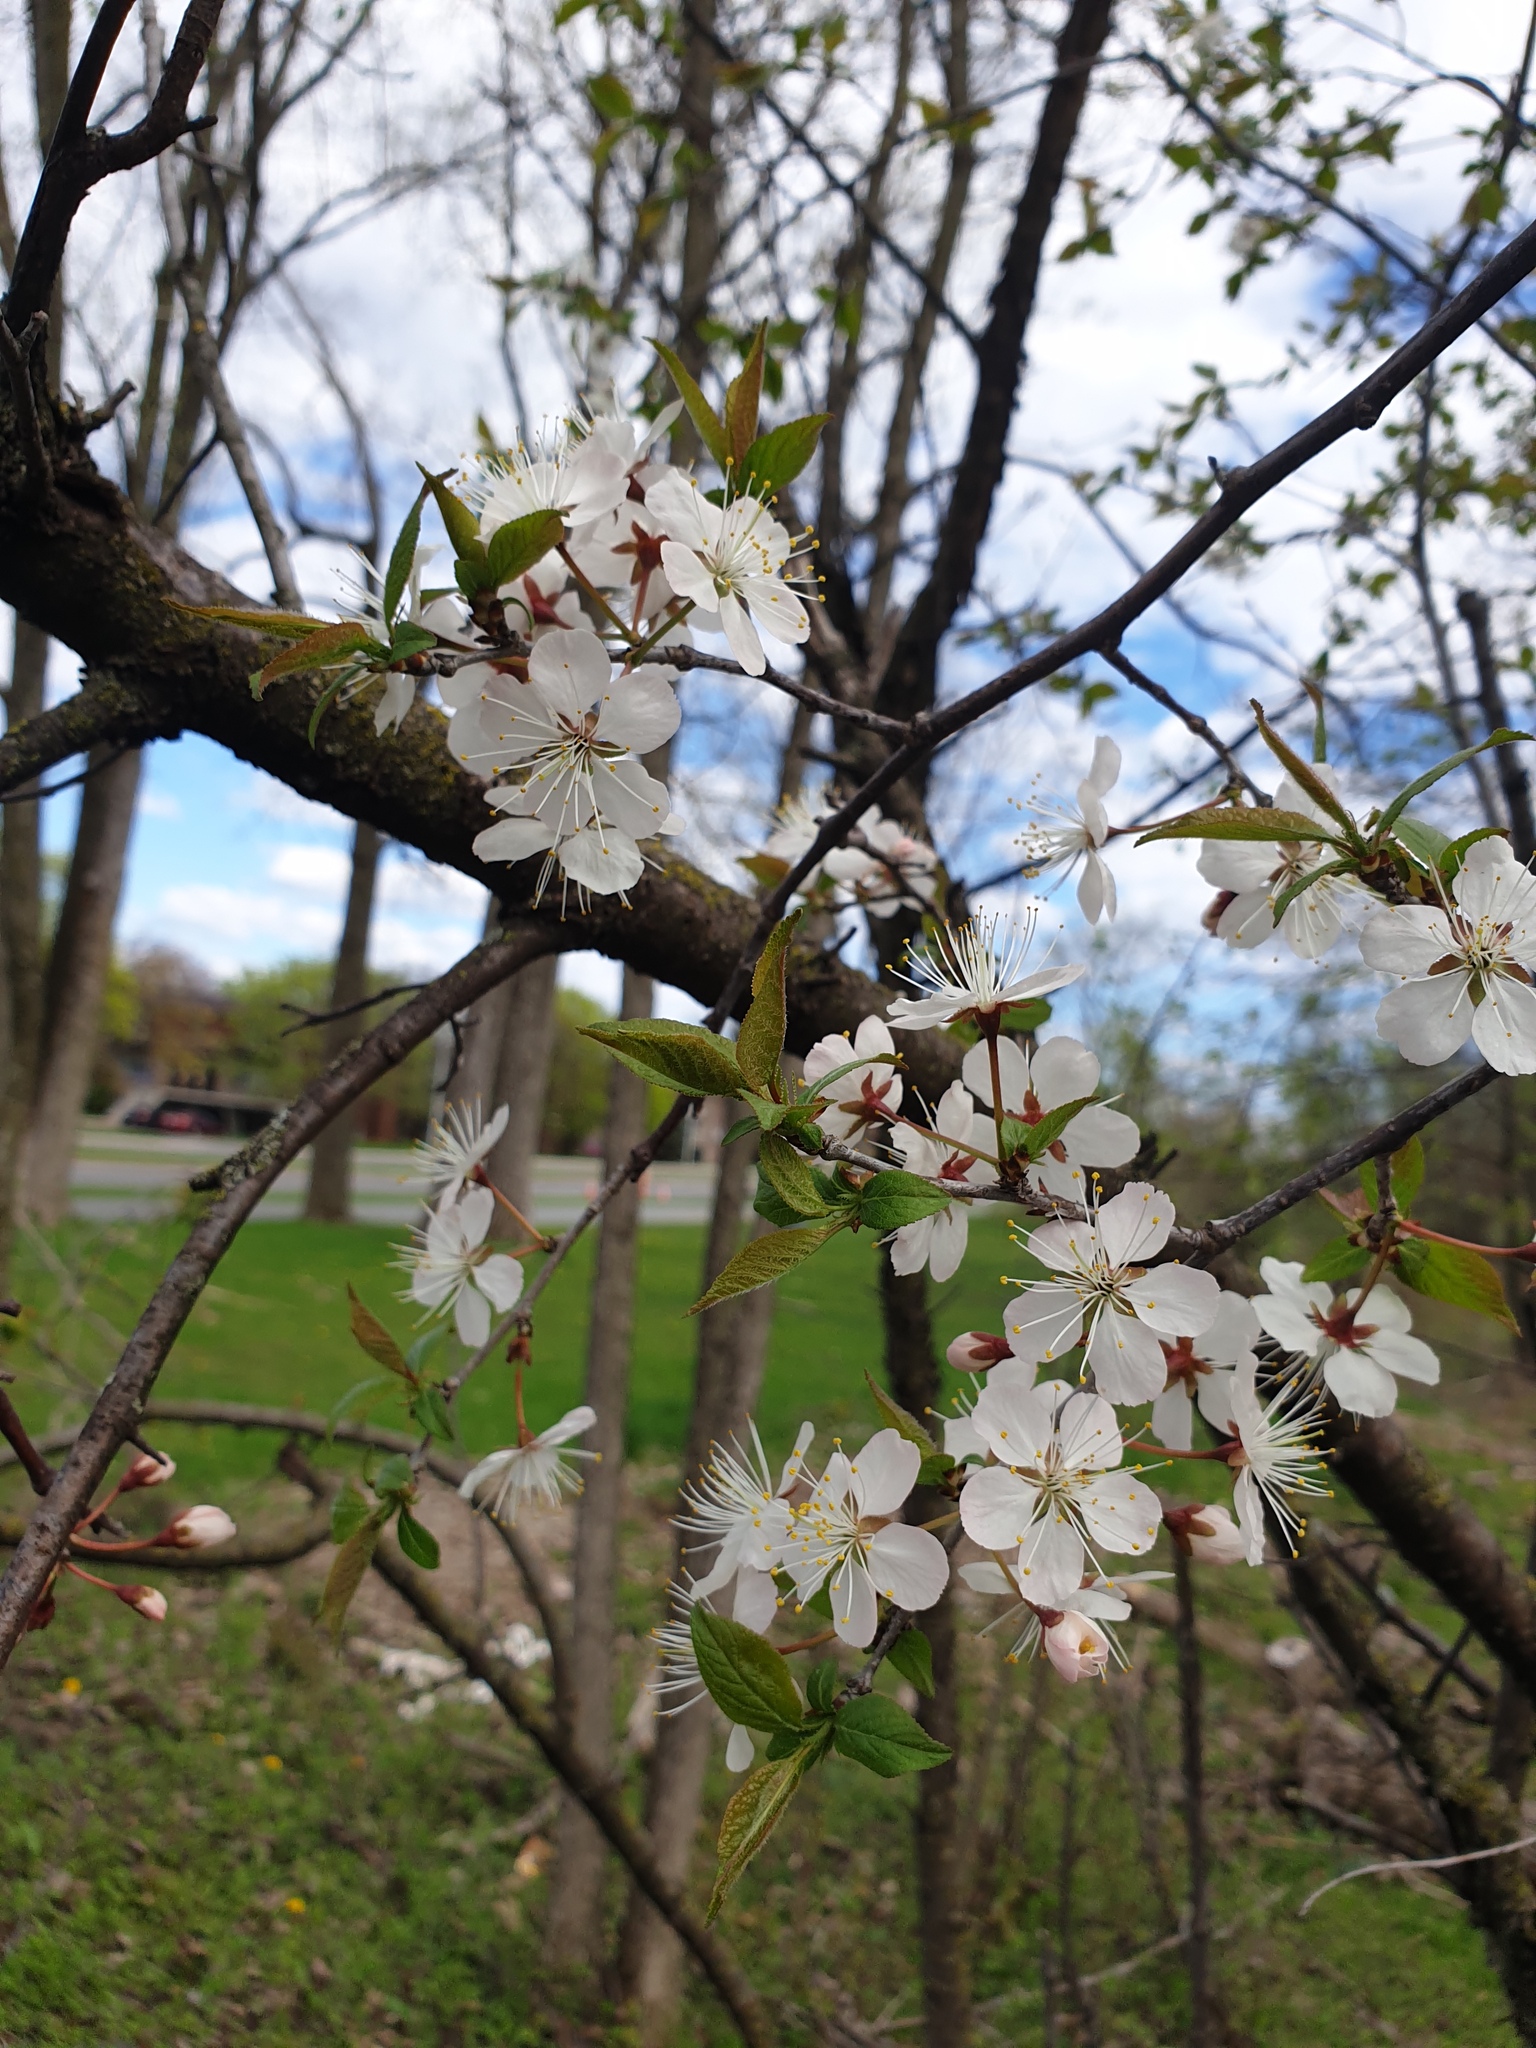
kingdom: Plantae
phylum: Tracheophyta
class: Magnoliopsida
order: Rosales
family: Rosaceae
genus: Prunus
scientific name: Prunus nigra
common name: Black plum
